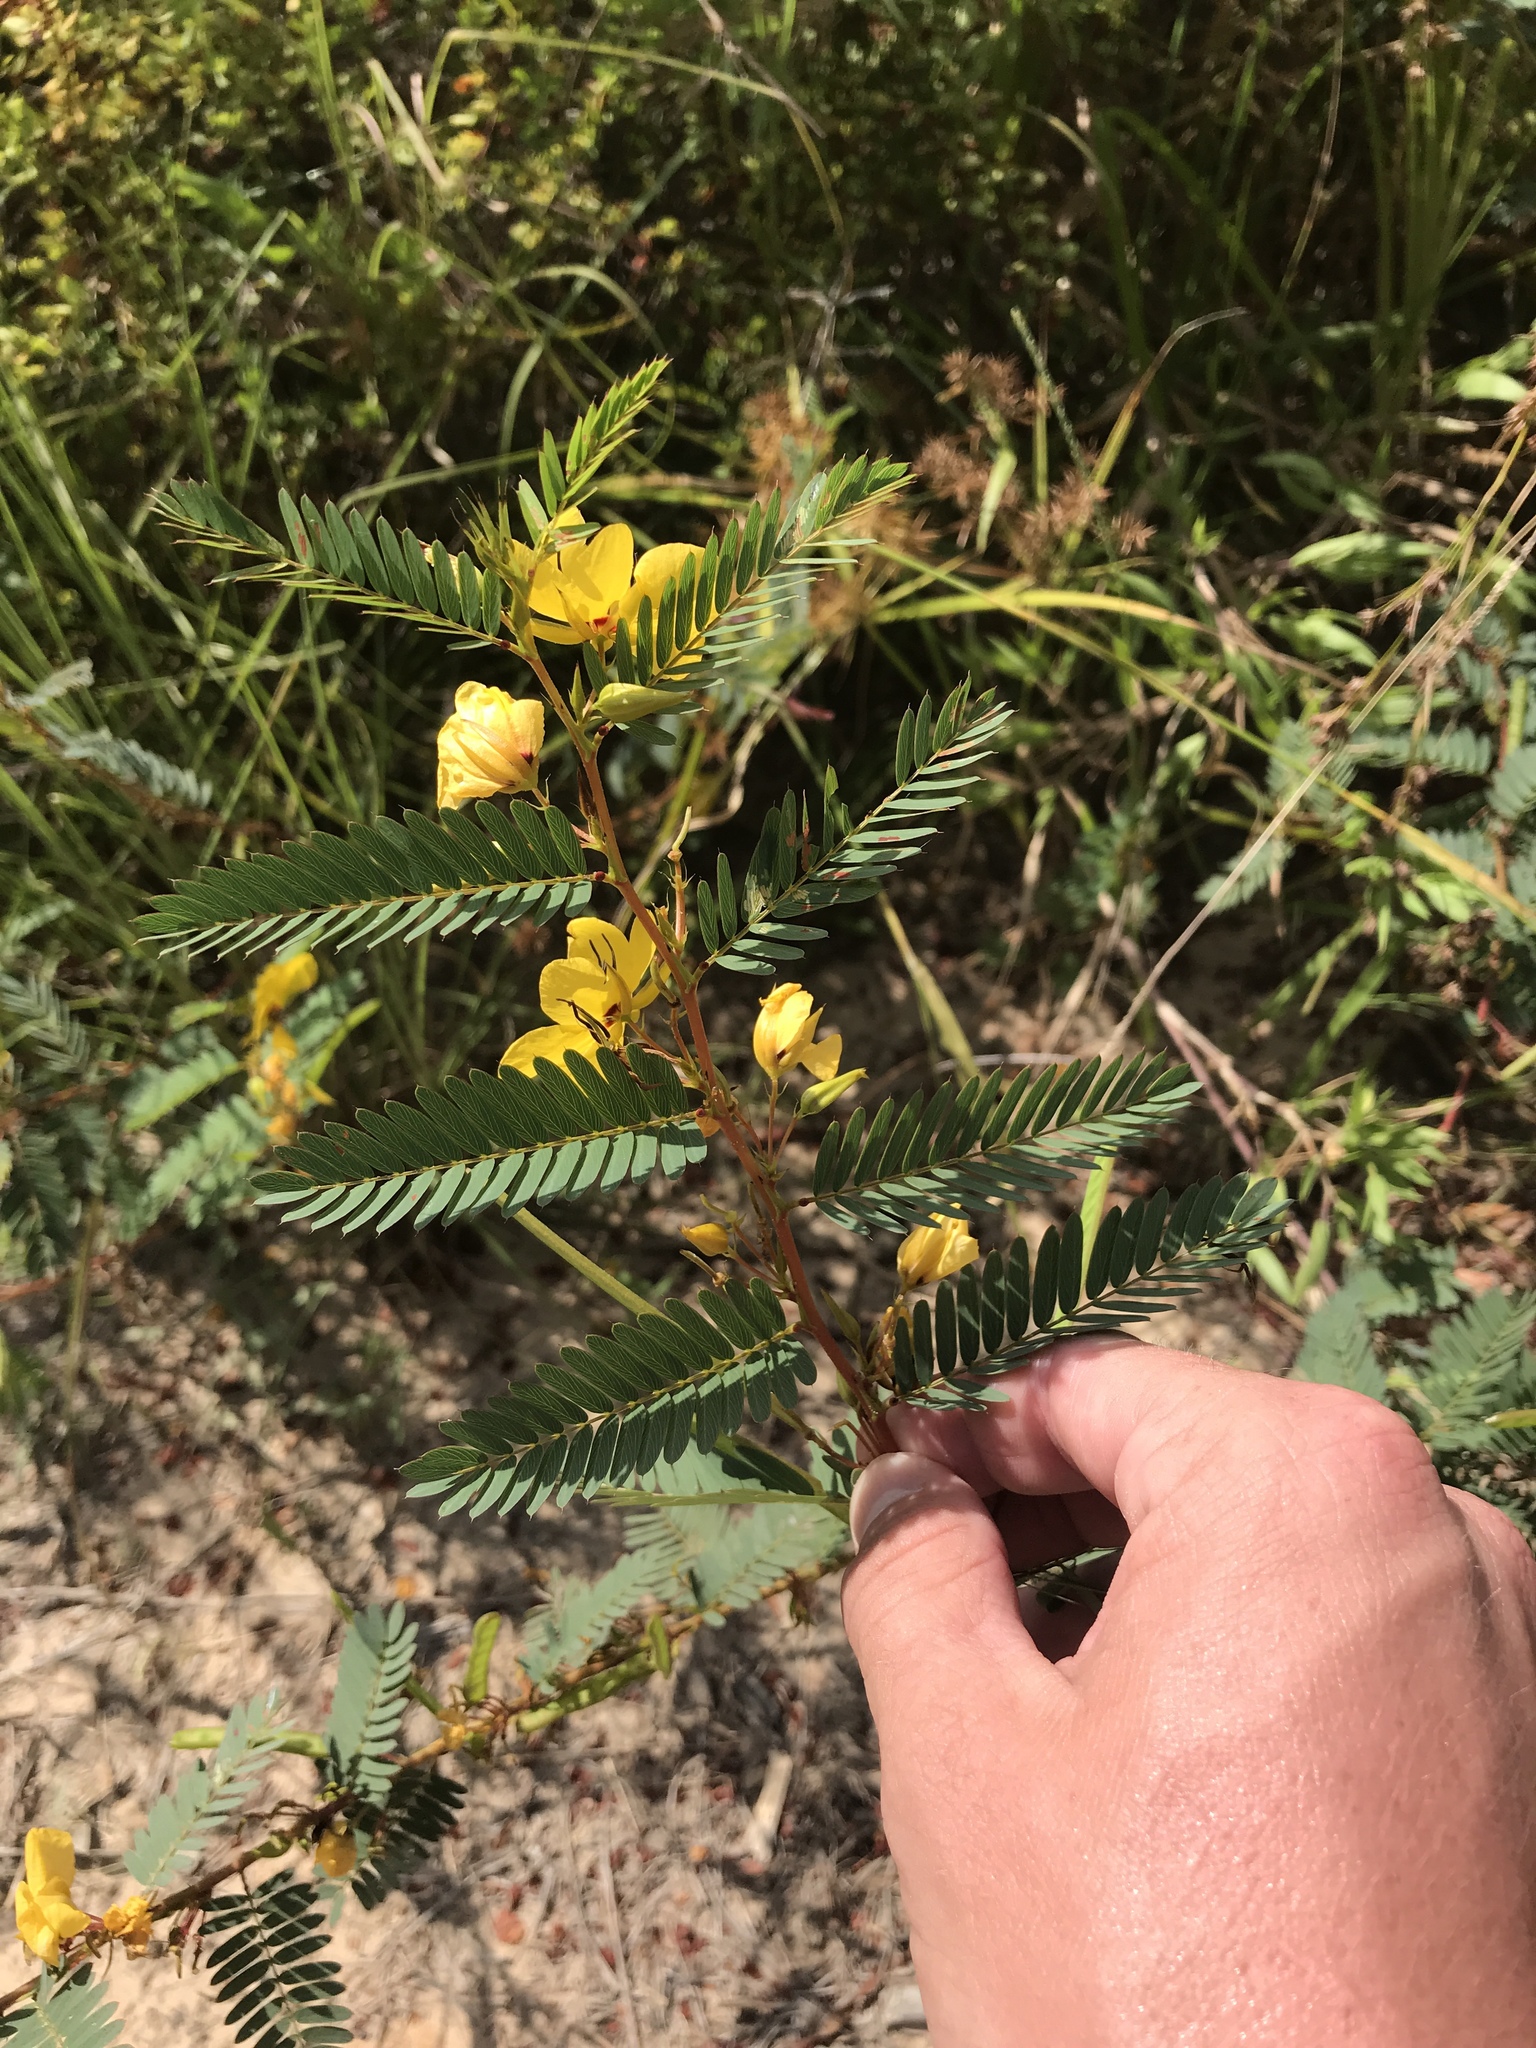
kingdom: Plantae
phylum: Tracheophyta
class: Magnoliopsida
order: Fabales
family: Fabaceae
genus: Chamaecrista
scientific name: Chamaecrista fasciculata
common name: Golden cassia
